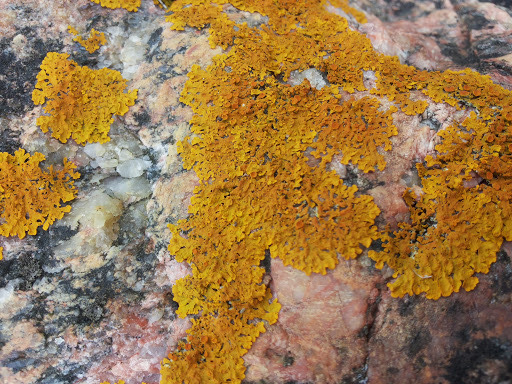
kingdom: Fungi
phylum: Ascomycota
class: Lecanoromycetes
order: Teloschistales
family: Teloschistaceae
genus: Xanthoria
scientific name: Xanthoria parietina
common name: Common orange lichen
